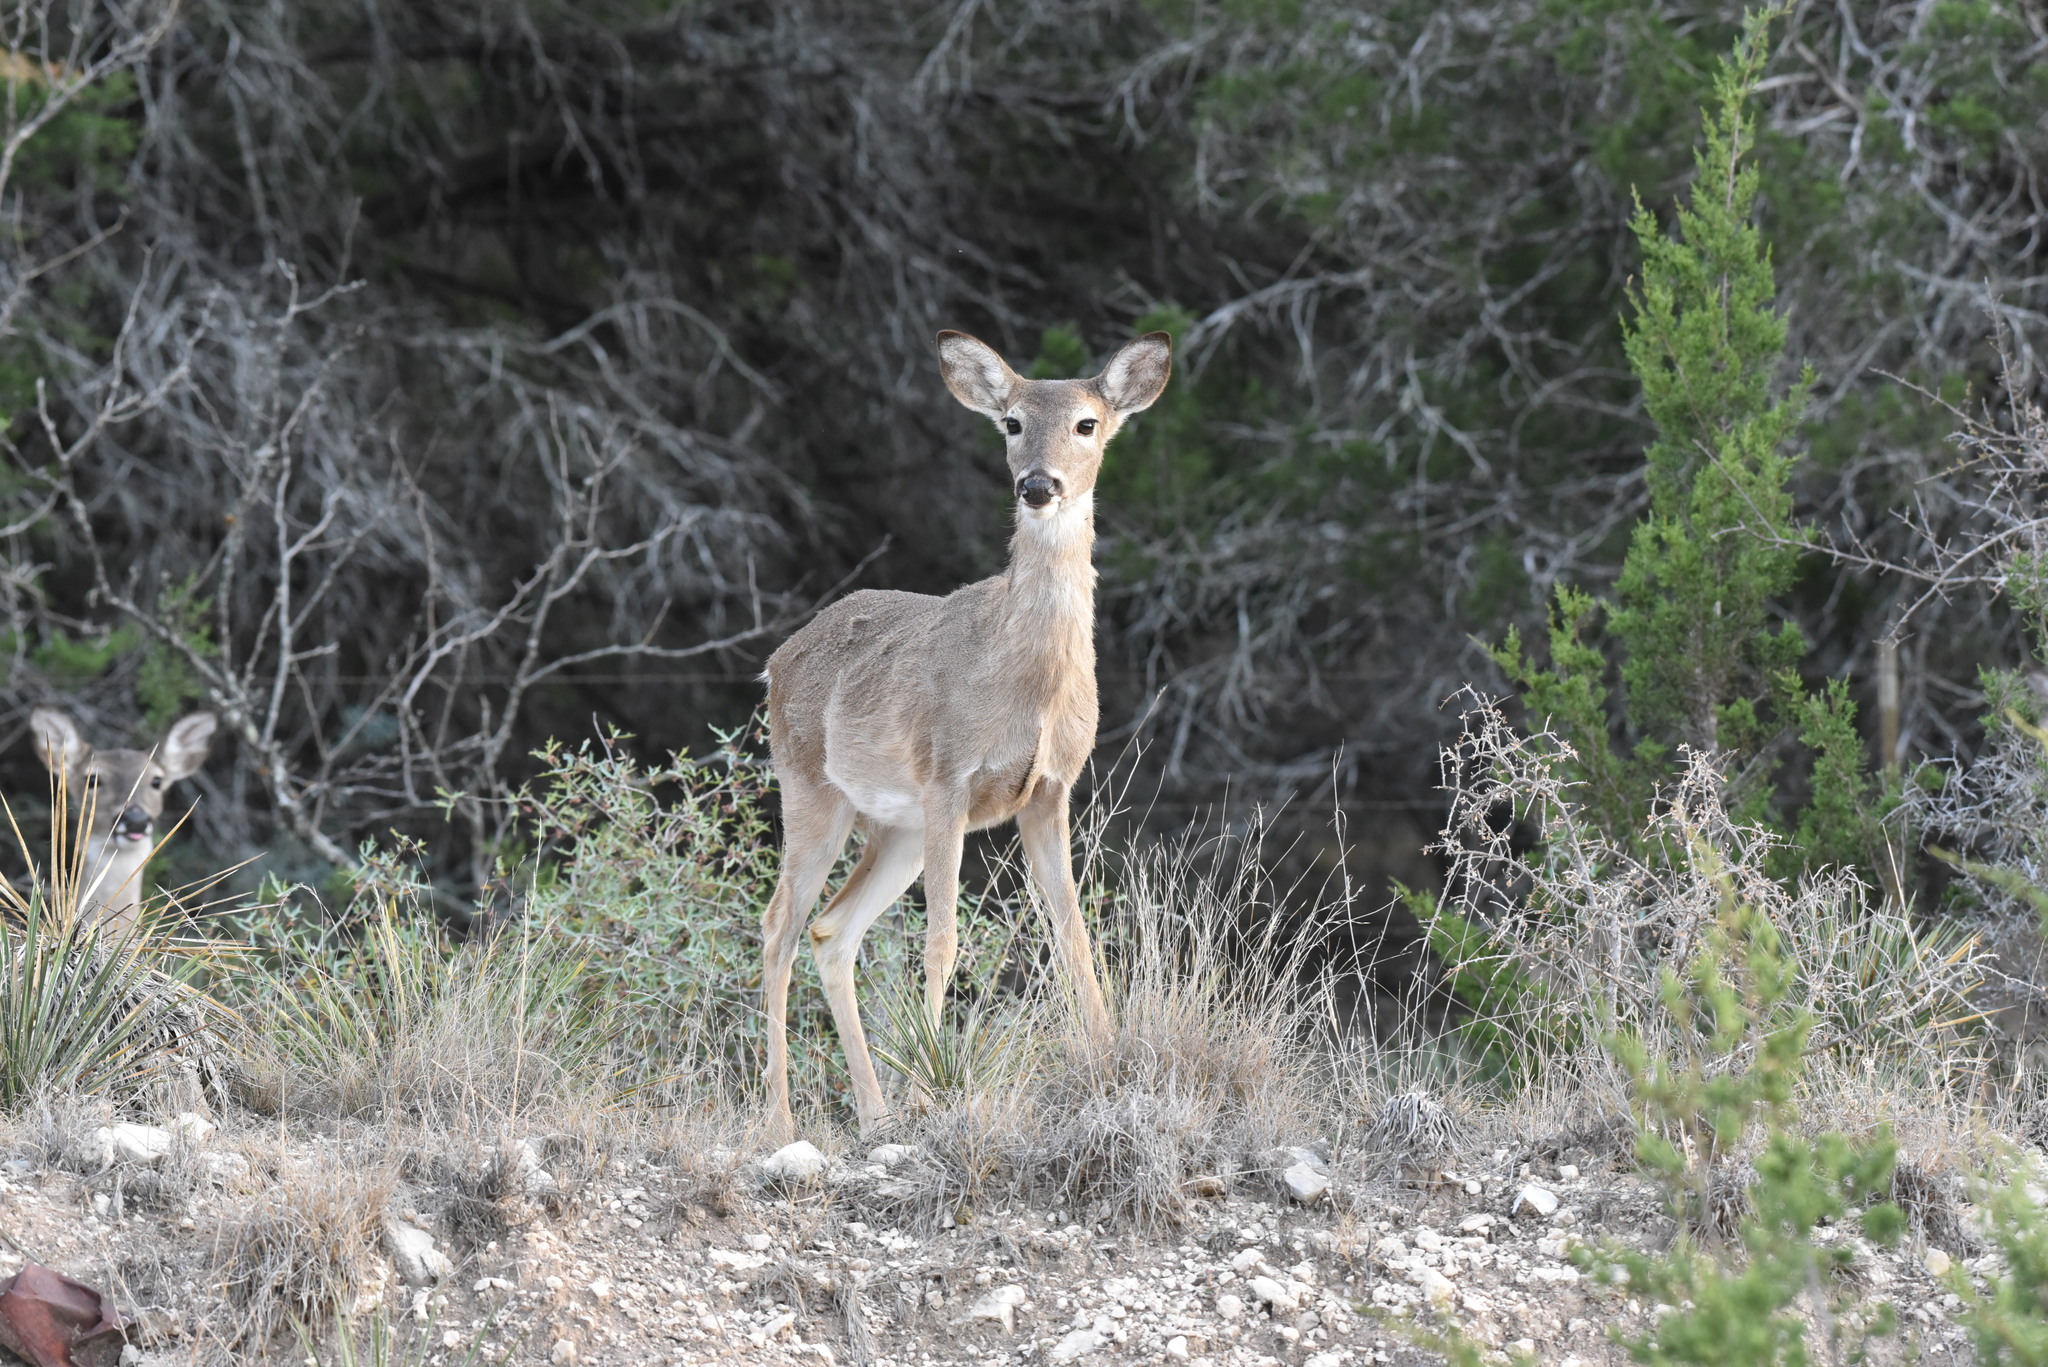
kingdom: Animalia
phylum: Chordata
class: Mammalia
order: Artiodactyla
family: Cervidae
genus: Odocoileus
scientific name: Odocoileus virginianus
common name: White-tailed deer
